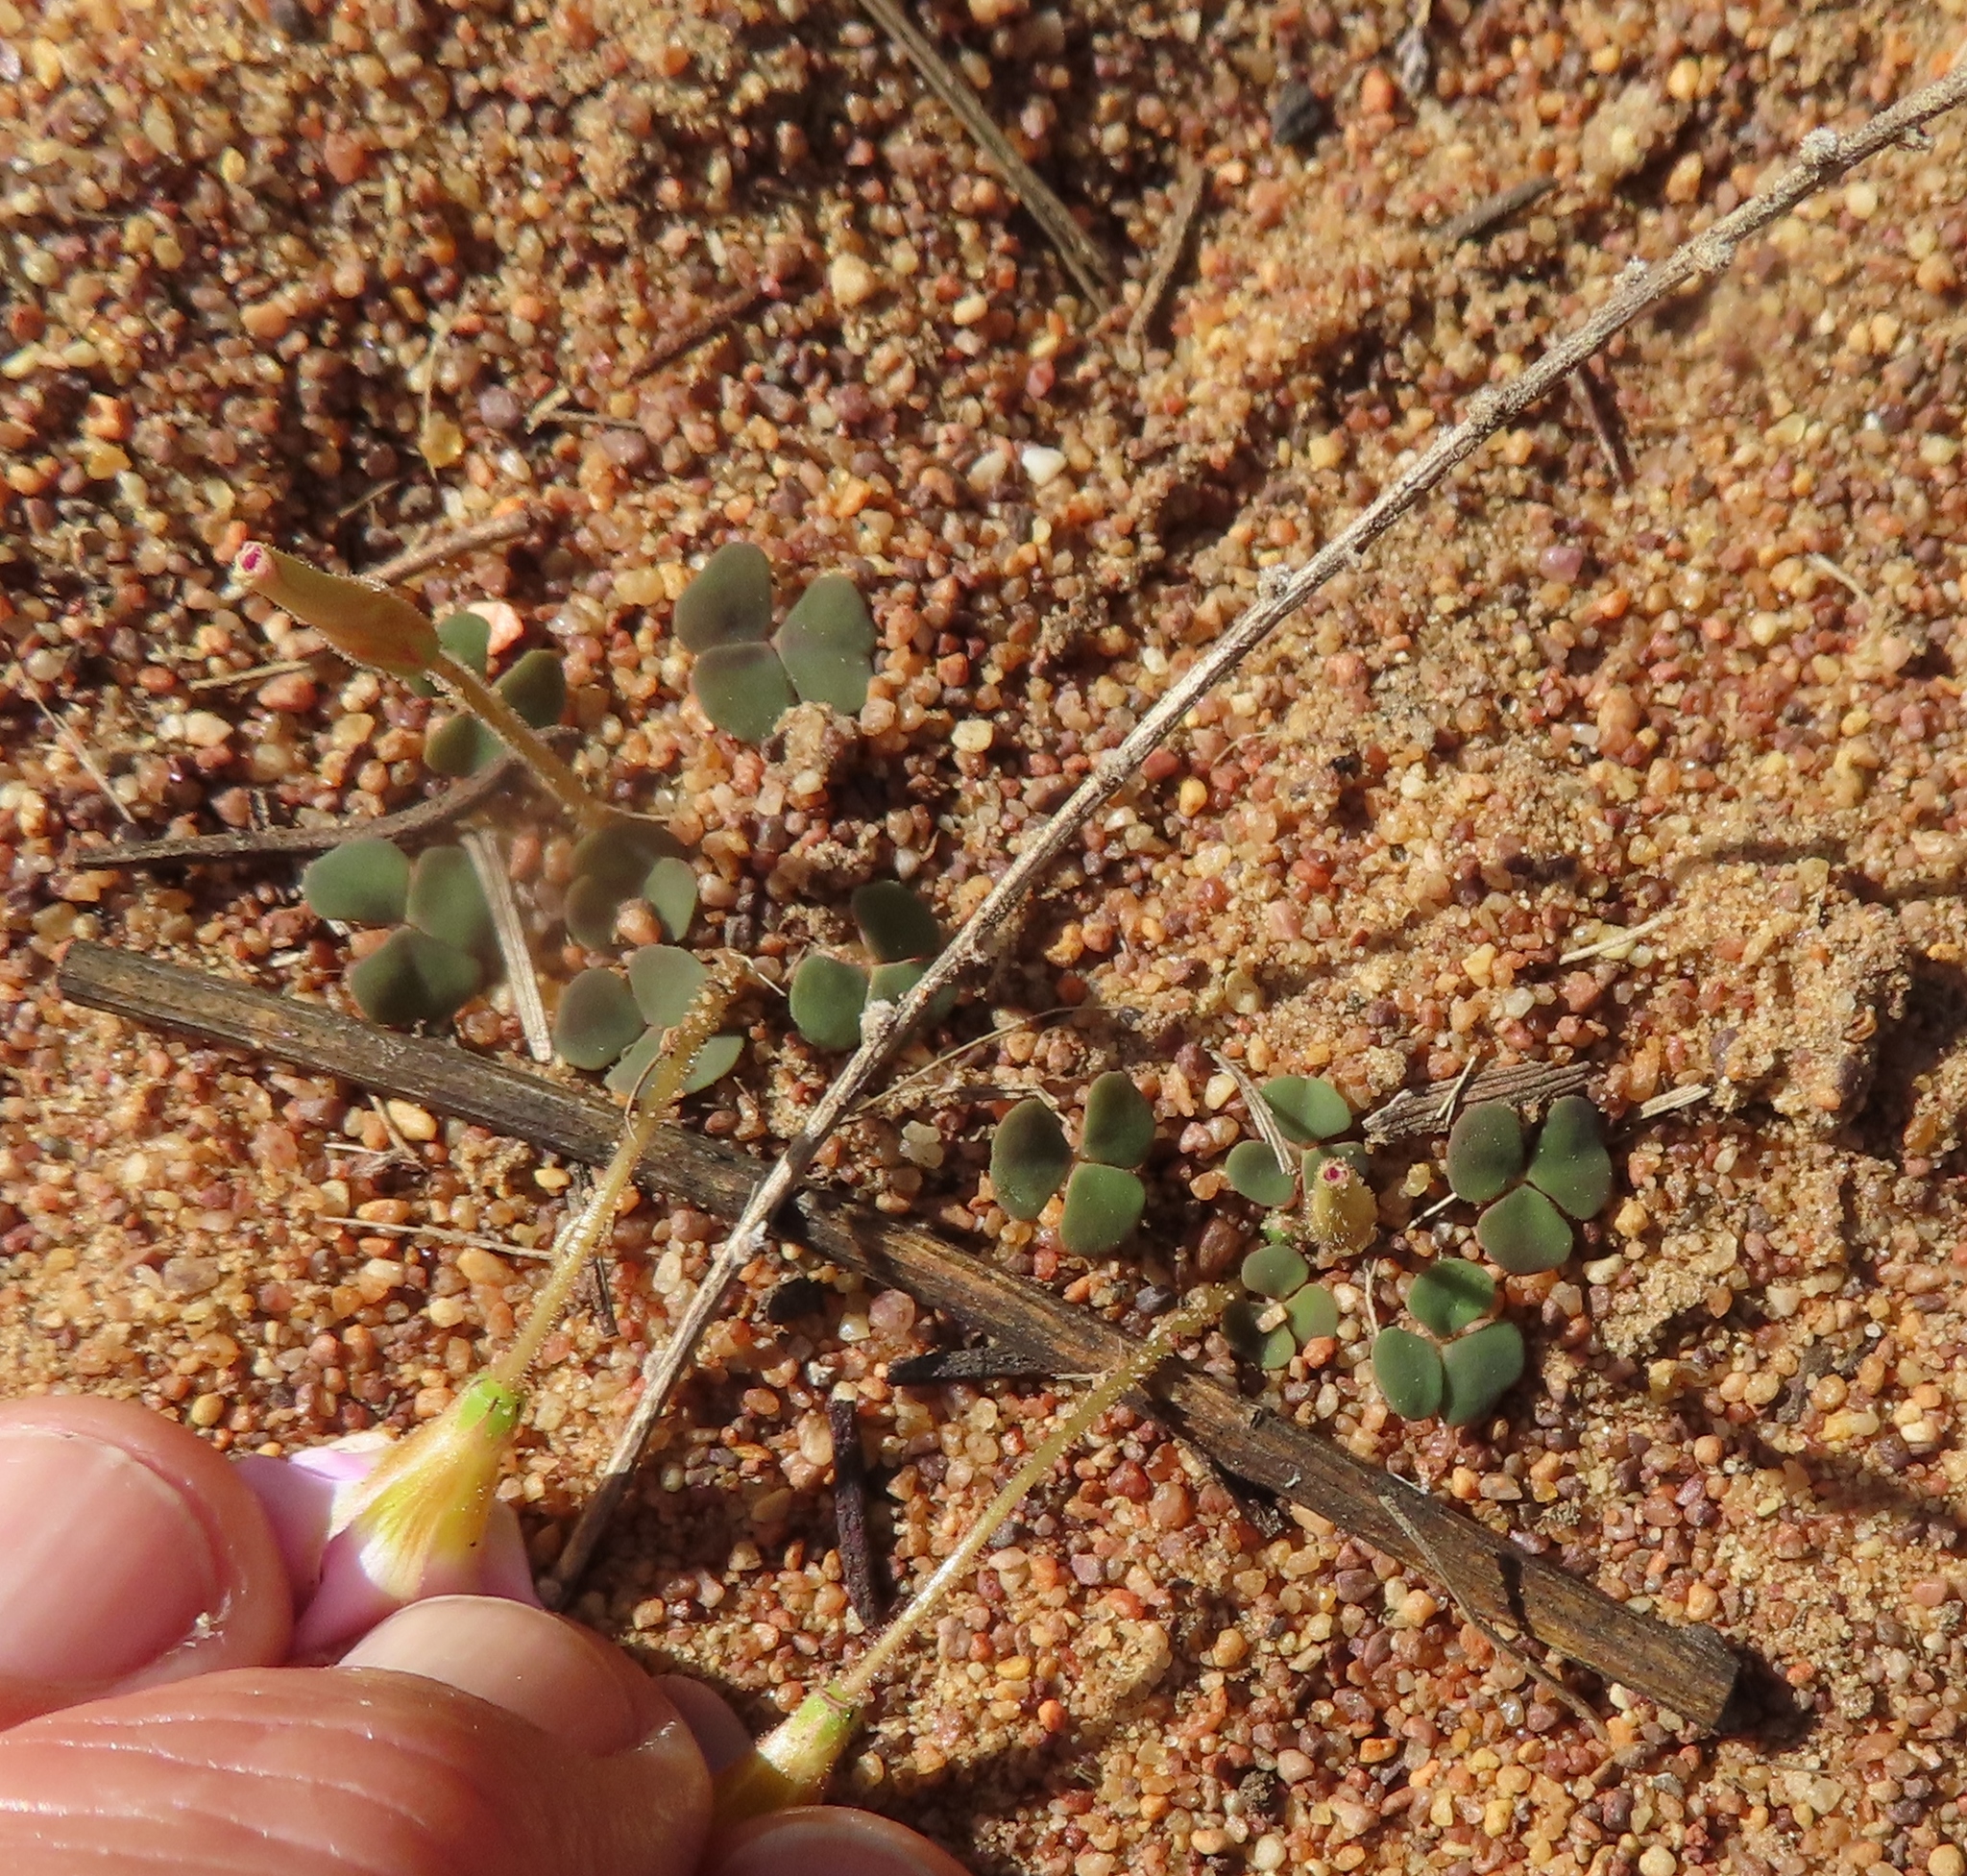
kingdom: Plantae
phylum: Tracheophyta
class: Magnoliopsida
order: Oxalidales
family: Oxalidaceae
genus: Oxalis
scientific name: Oxalis punctata
